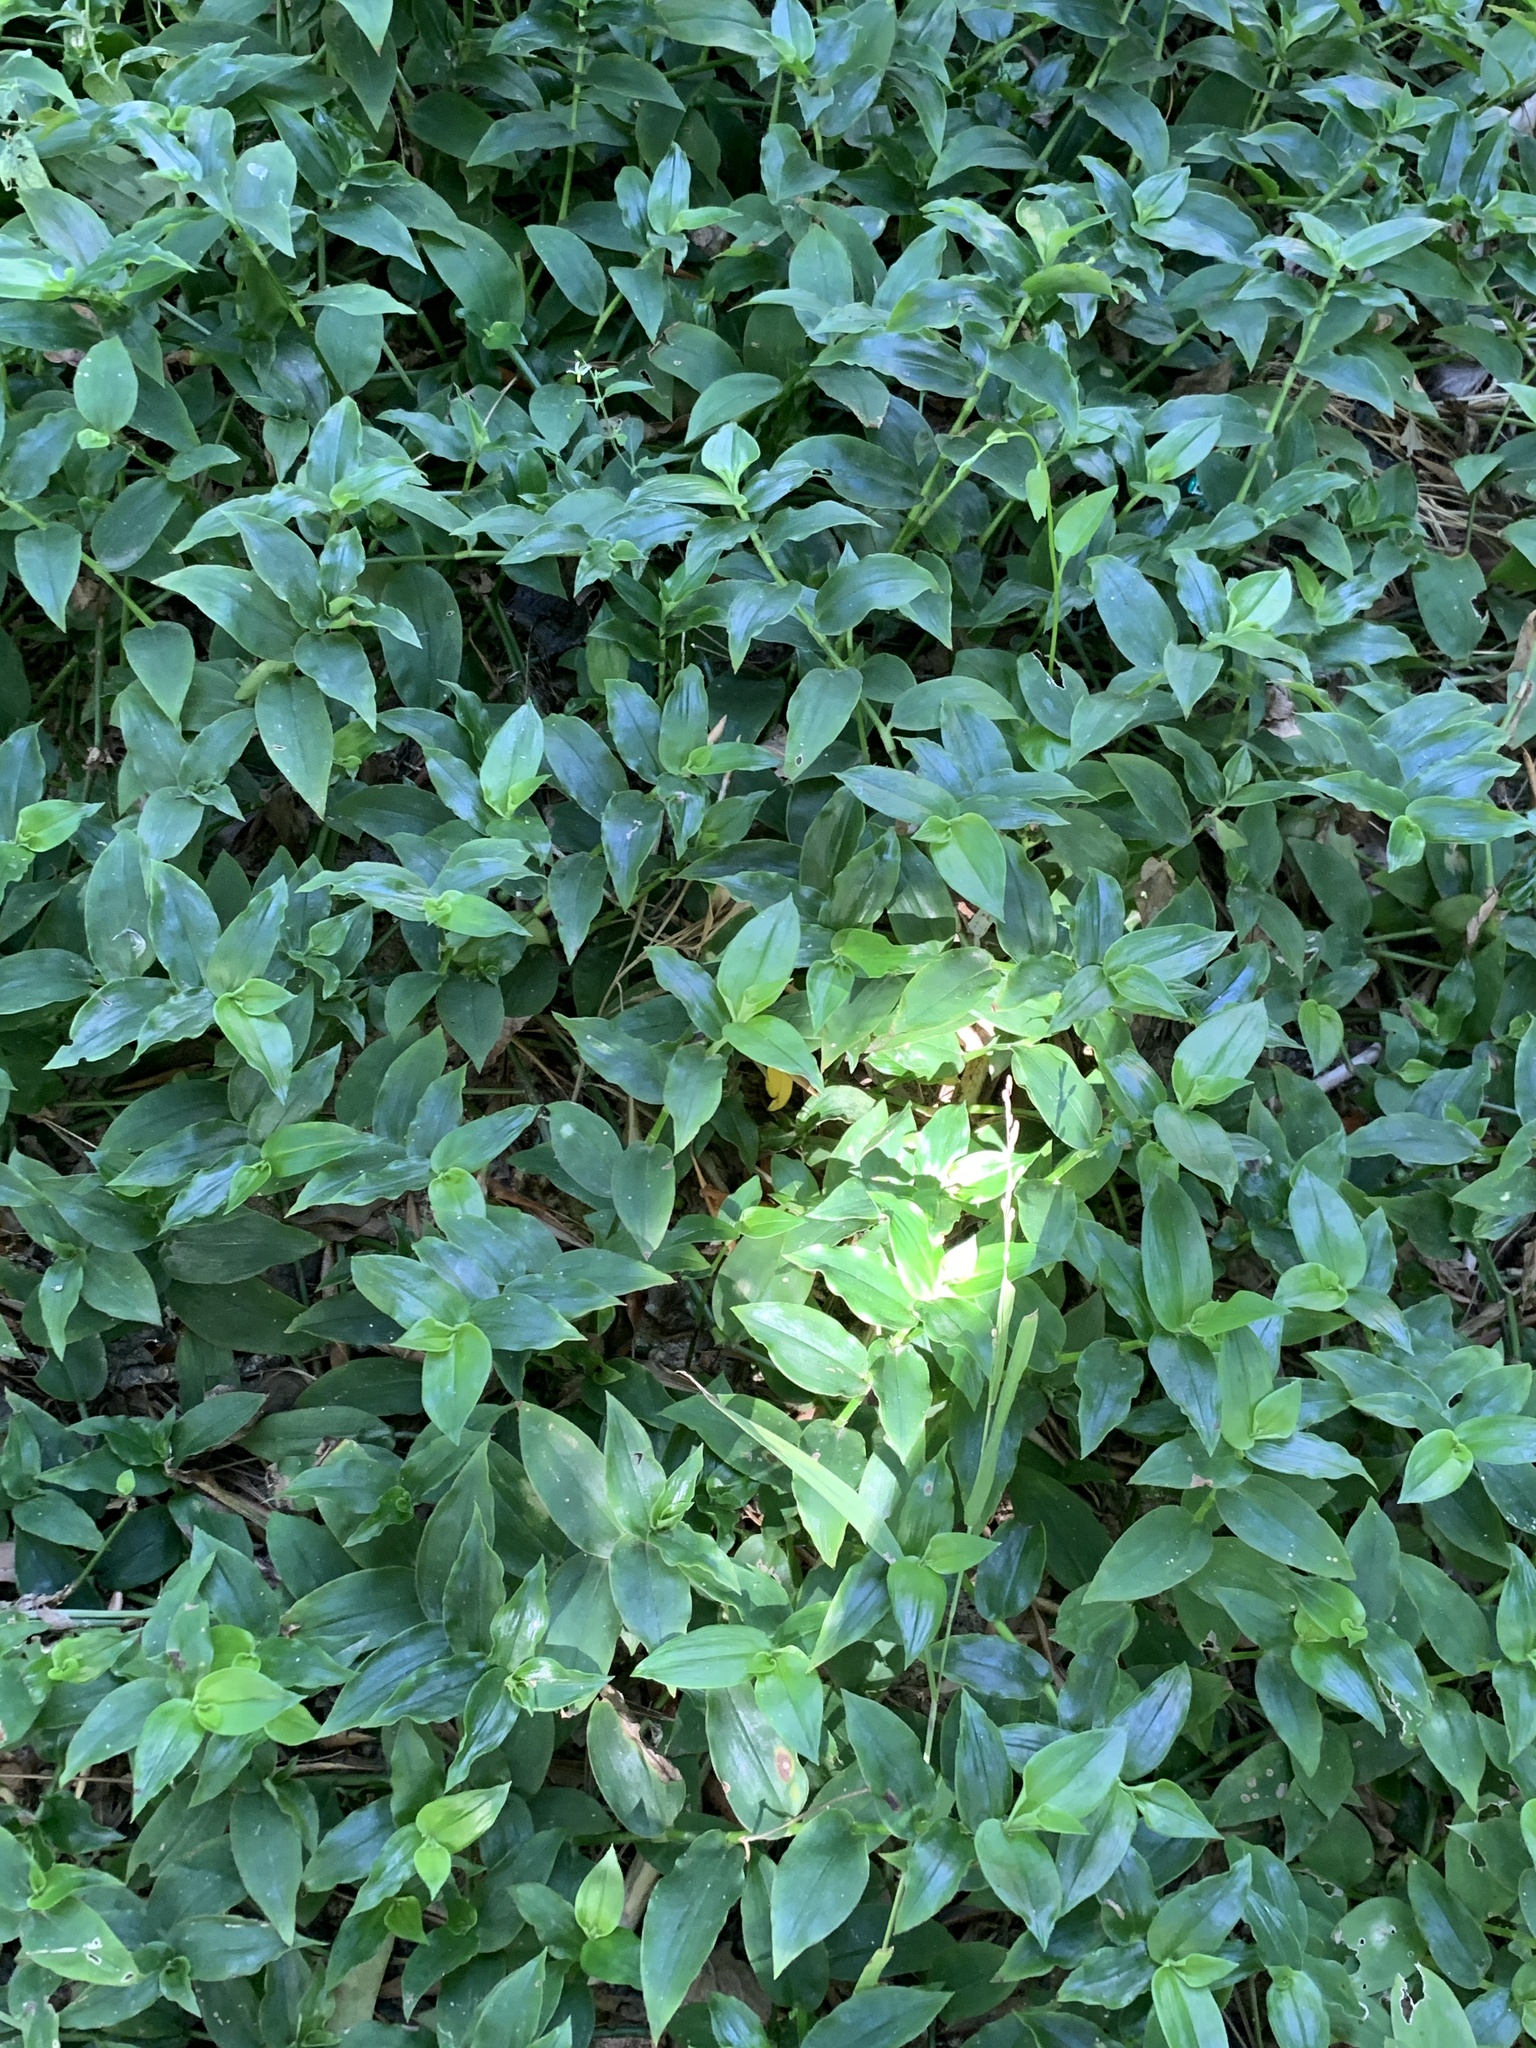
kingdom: Plantae
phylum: Tracheophyta
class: Liliopsida
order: Commelinales
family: Commelinaceae
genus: Tradescantia
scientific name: Tradescantia fluminensis
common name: Wandering-jew
